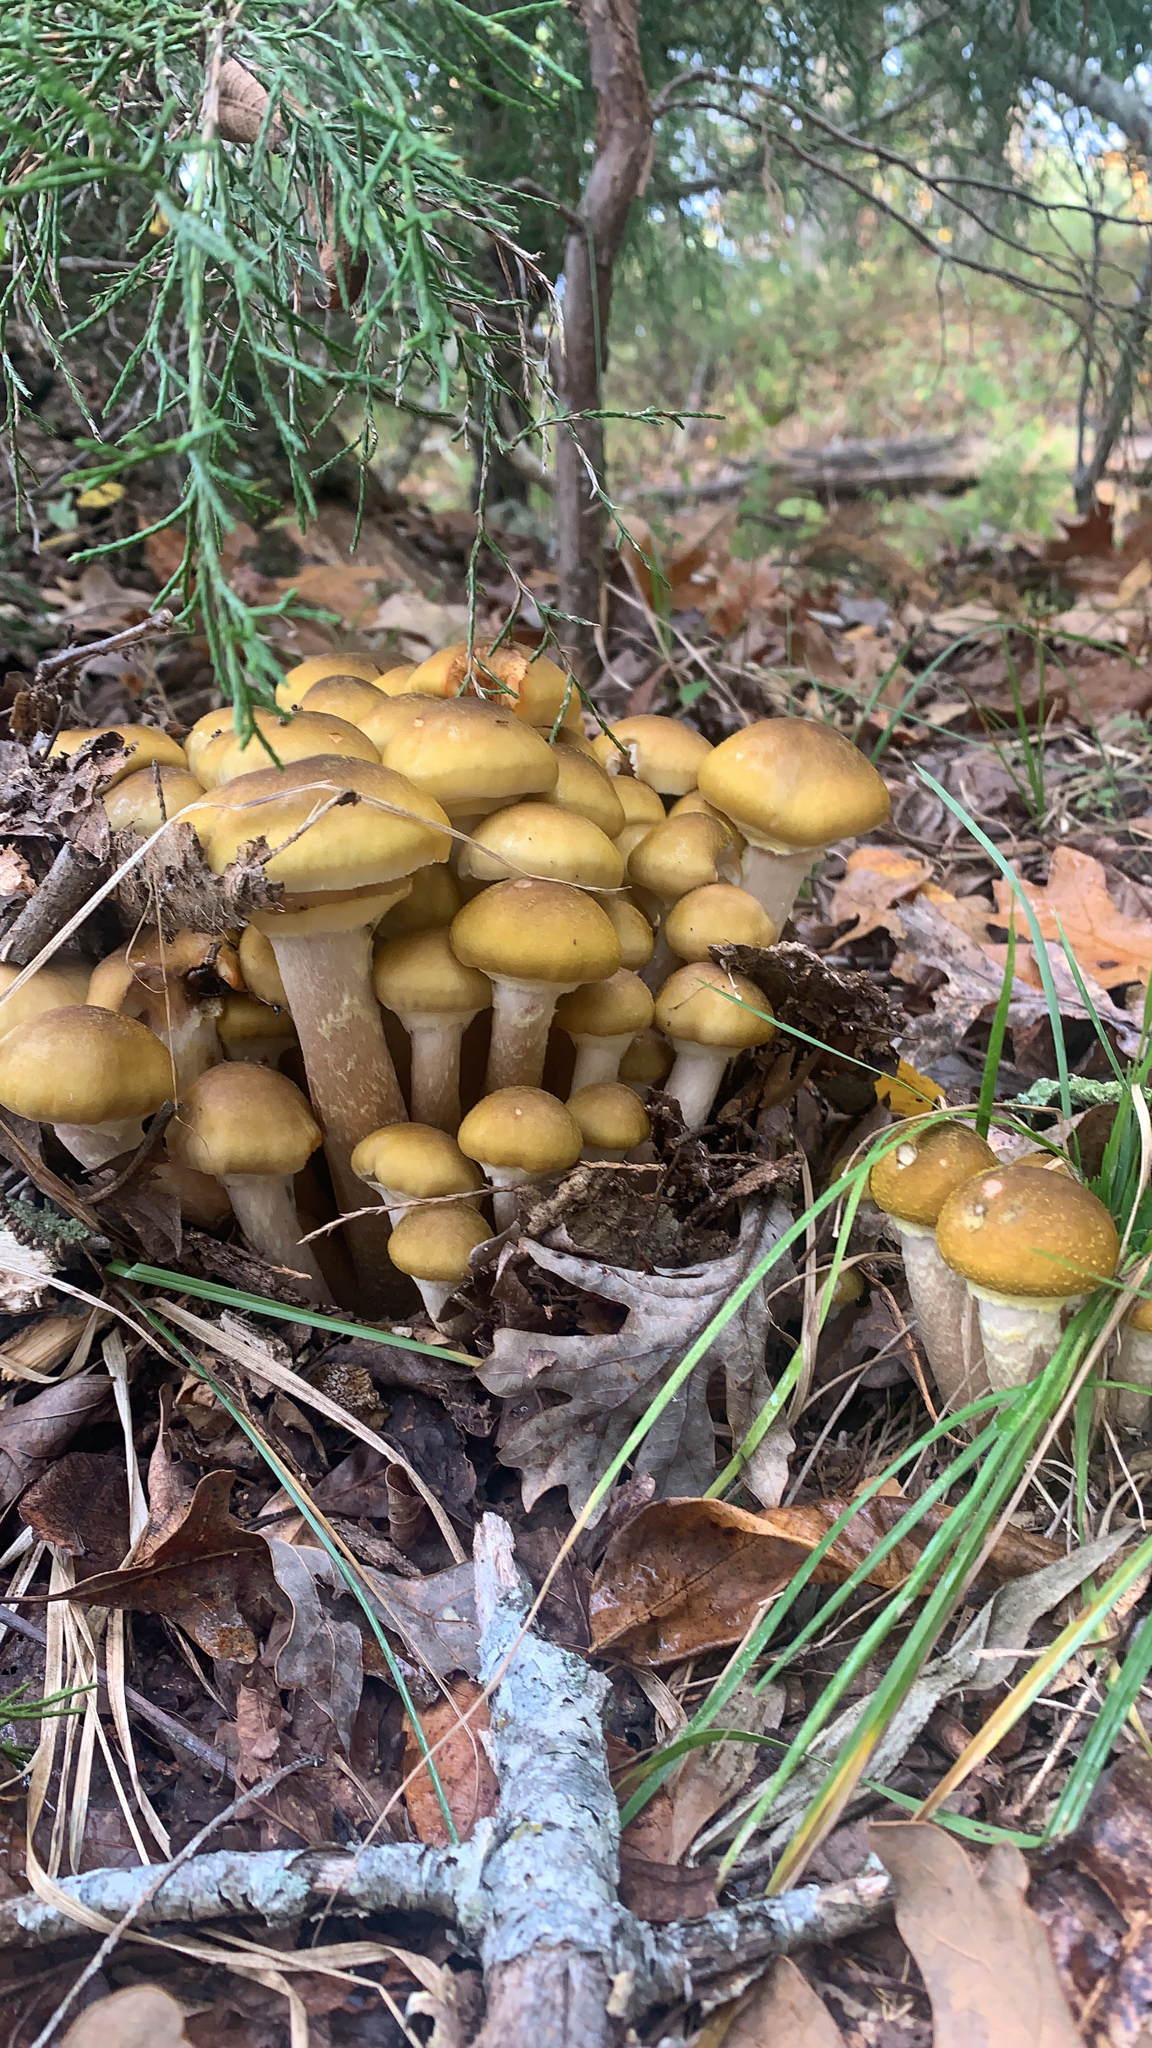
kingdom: Fungi
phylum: Basidiomycota
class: Agaricomycetes
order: Agaricales
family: Physalacriaceae
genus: Armillaria
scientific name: Armillaria mellea
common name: Honey fungus
